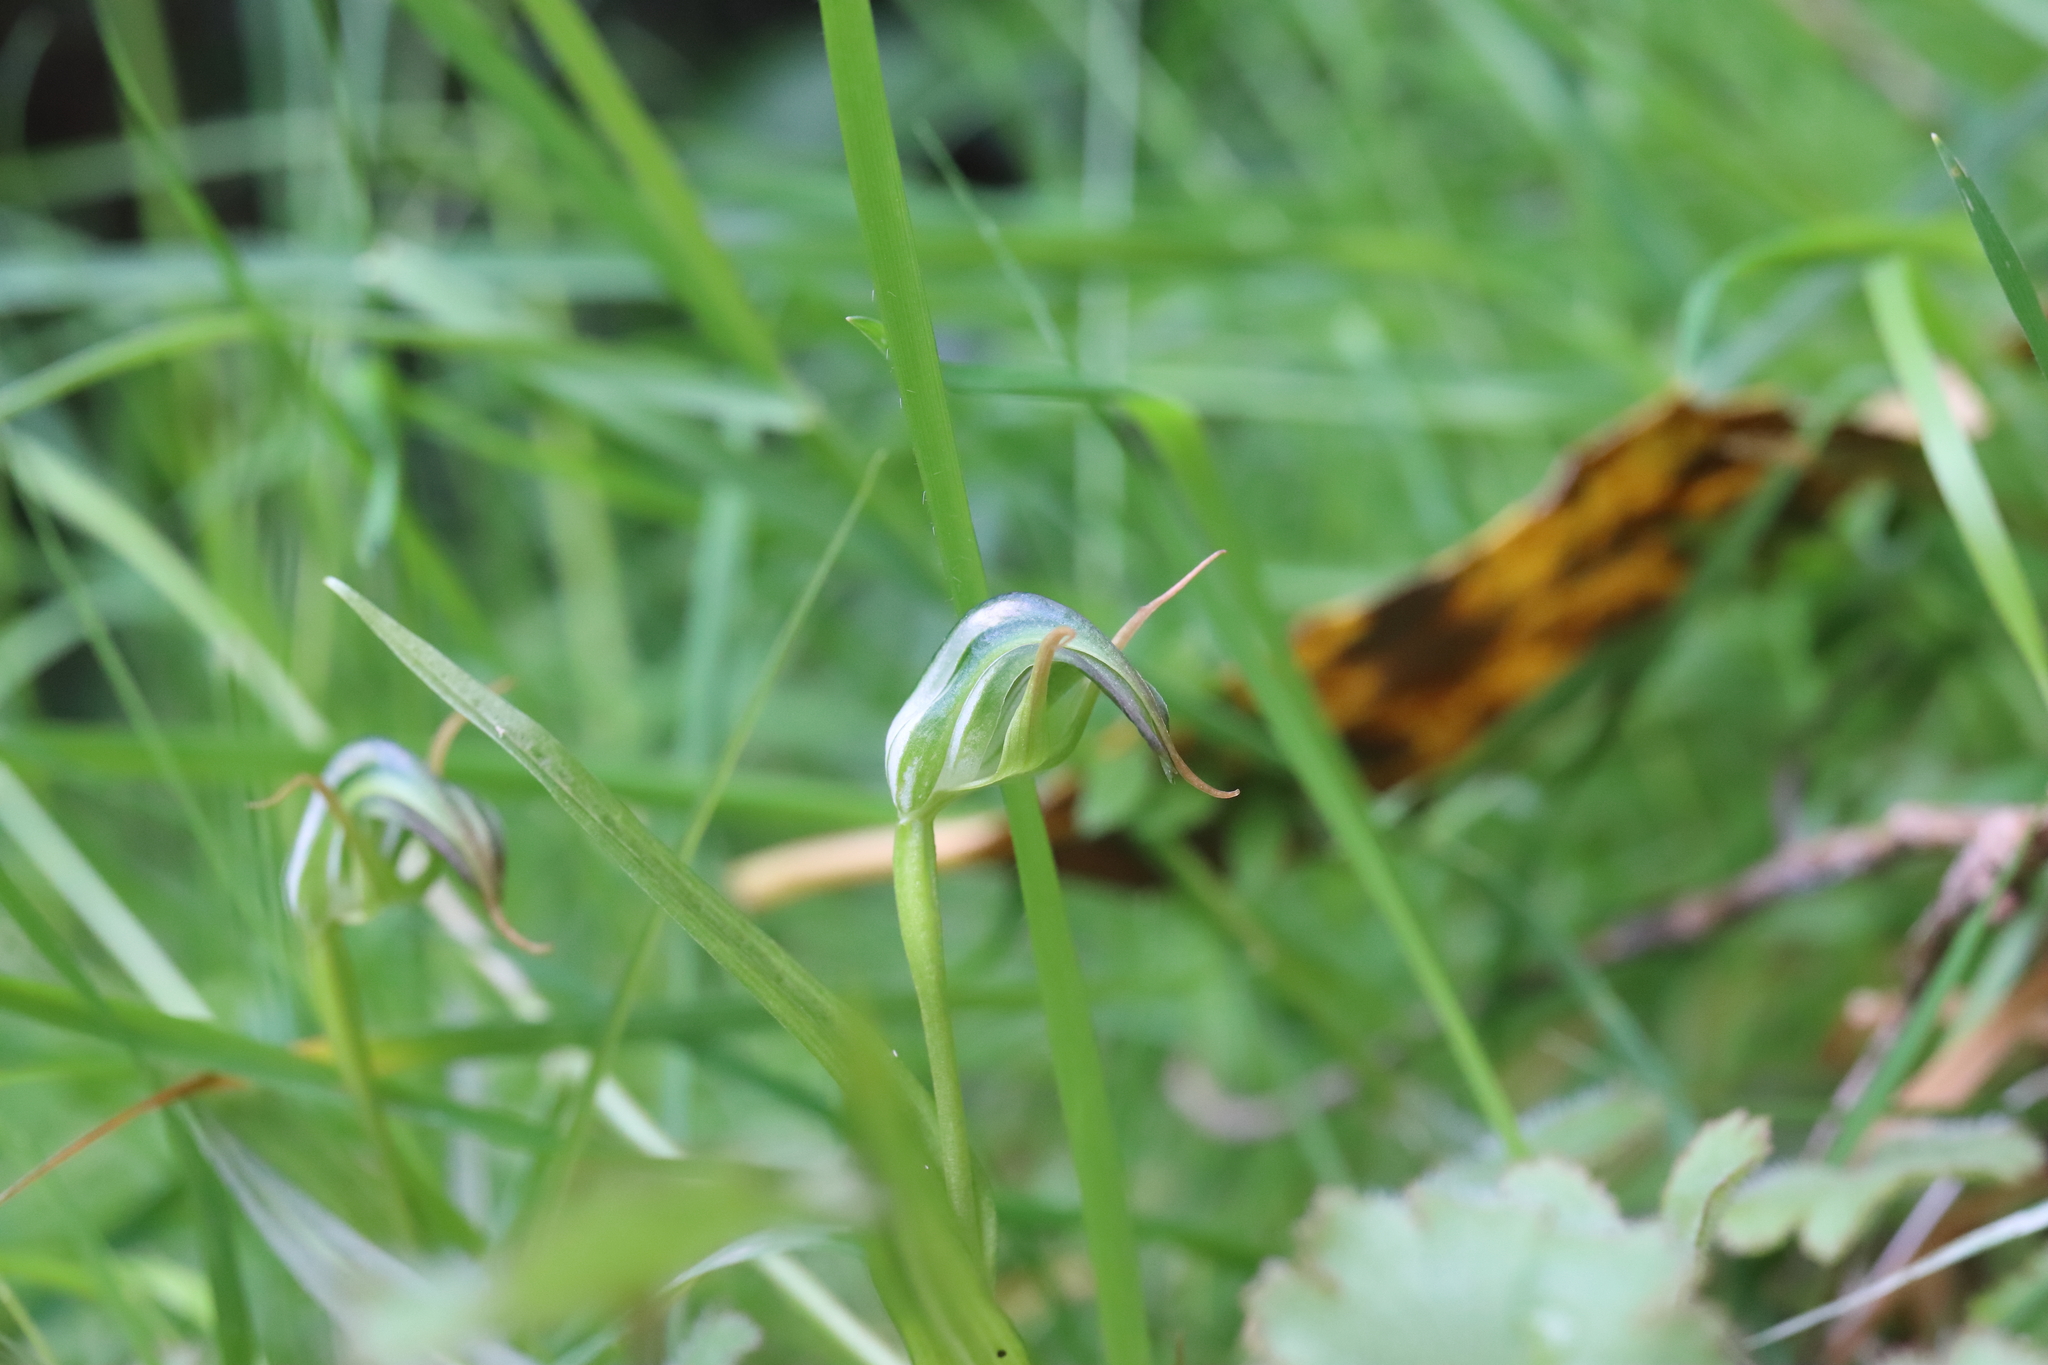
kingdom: Plantae
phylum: Tracheophyta
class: Liliopsida
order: Asparagales
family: Orchidaceae
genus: Pterostylis
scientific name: Pterostylis graminea
